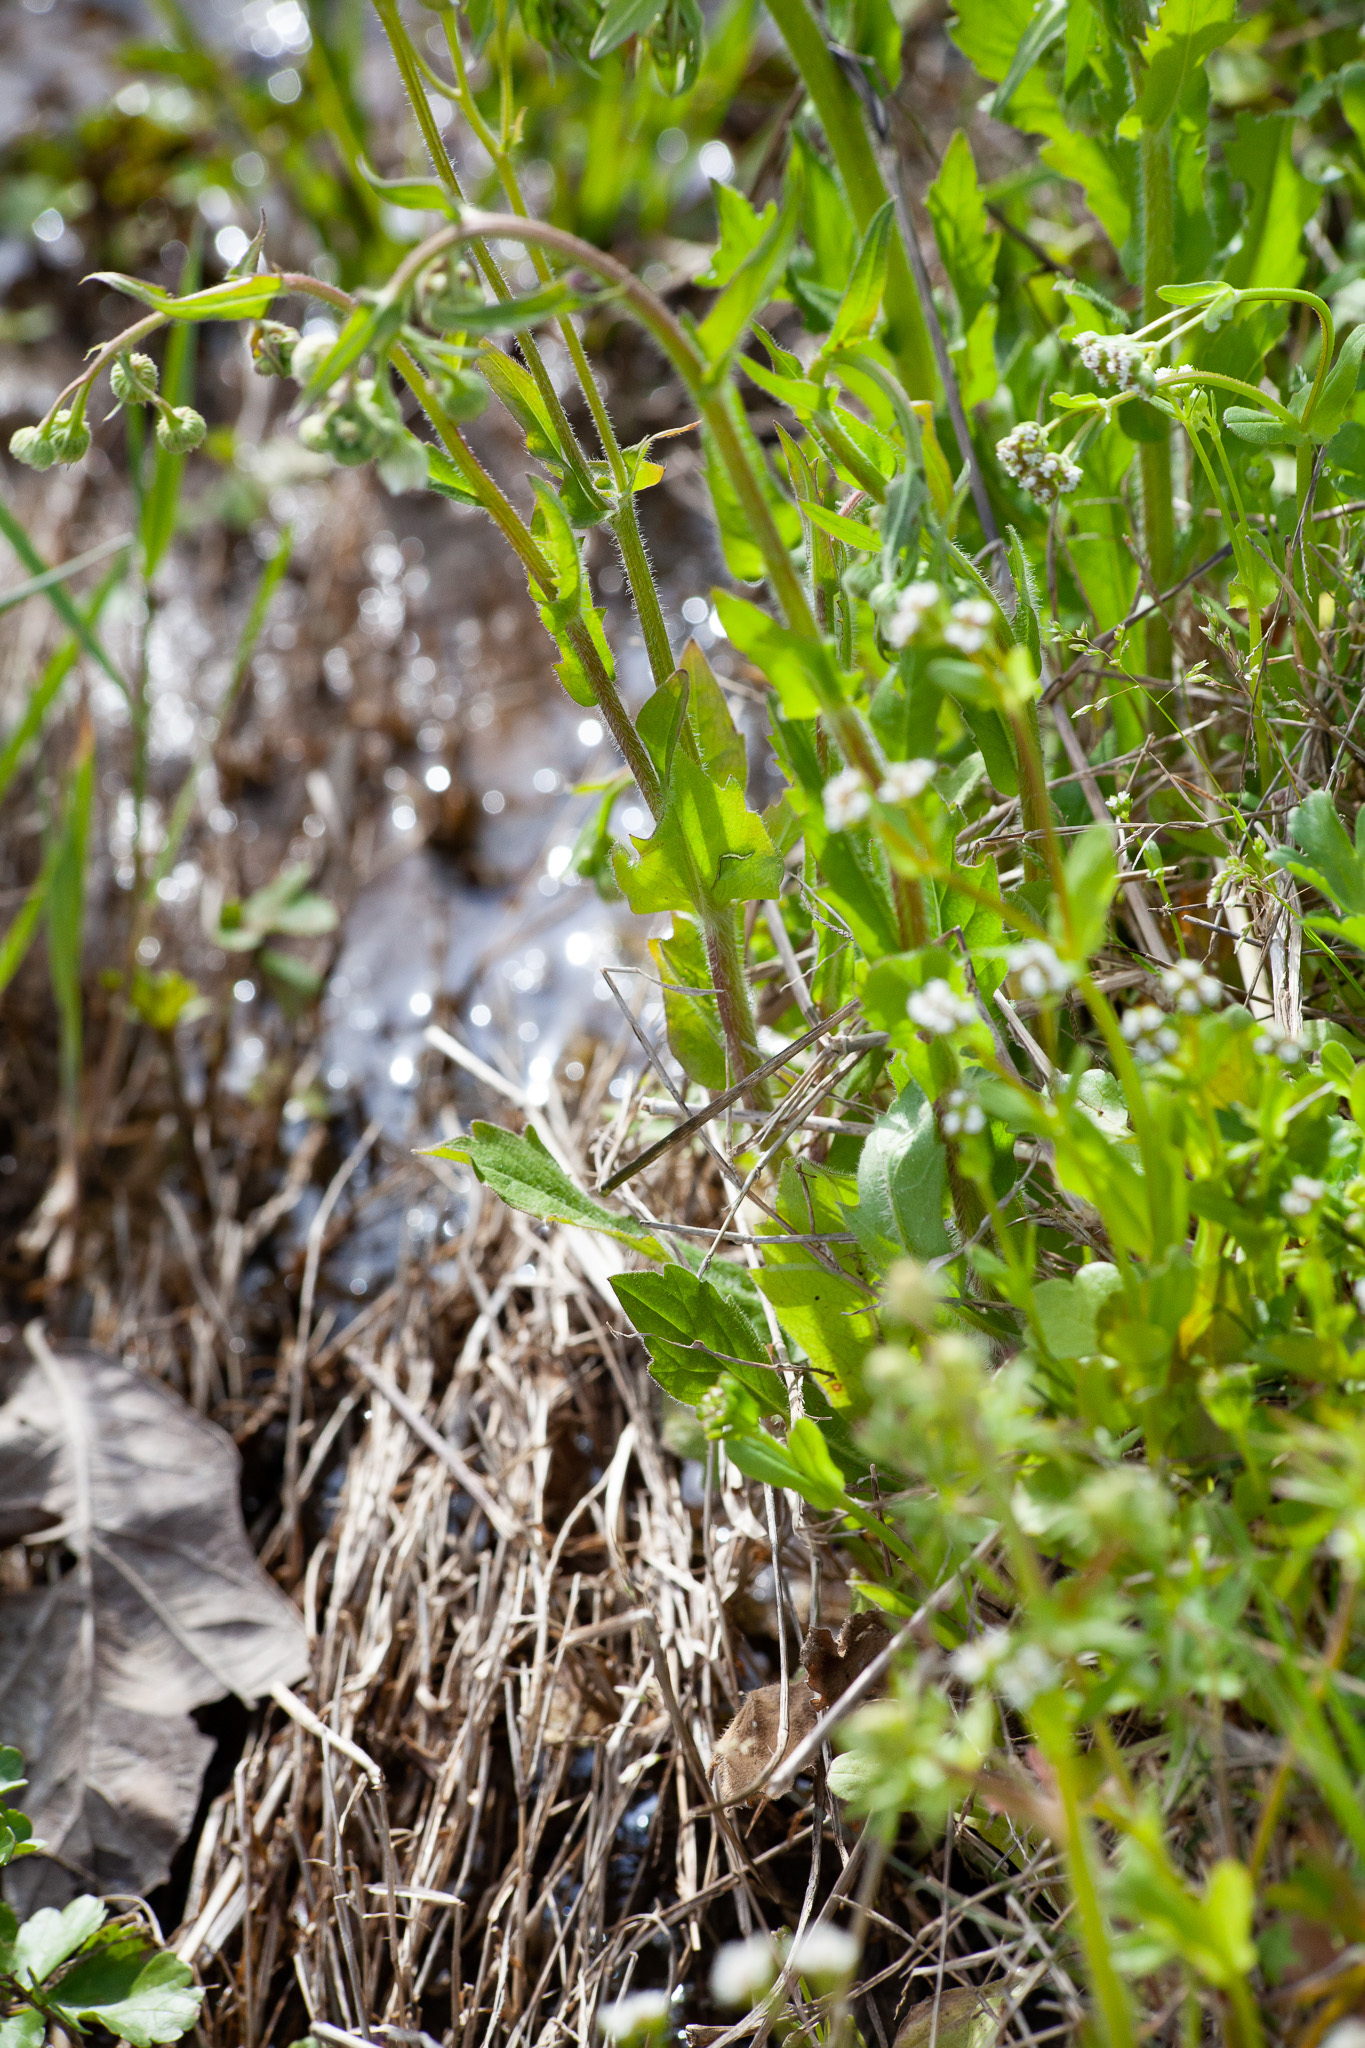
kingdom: Plantae
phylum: Tracheophyta
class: Magnoliopsida
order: Asterales
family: Asteraceae
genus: Erigeron
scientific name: Erigeron philadelphicus
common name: Robin's-plantain
